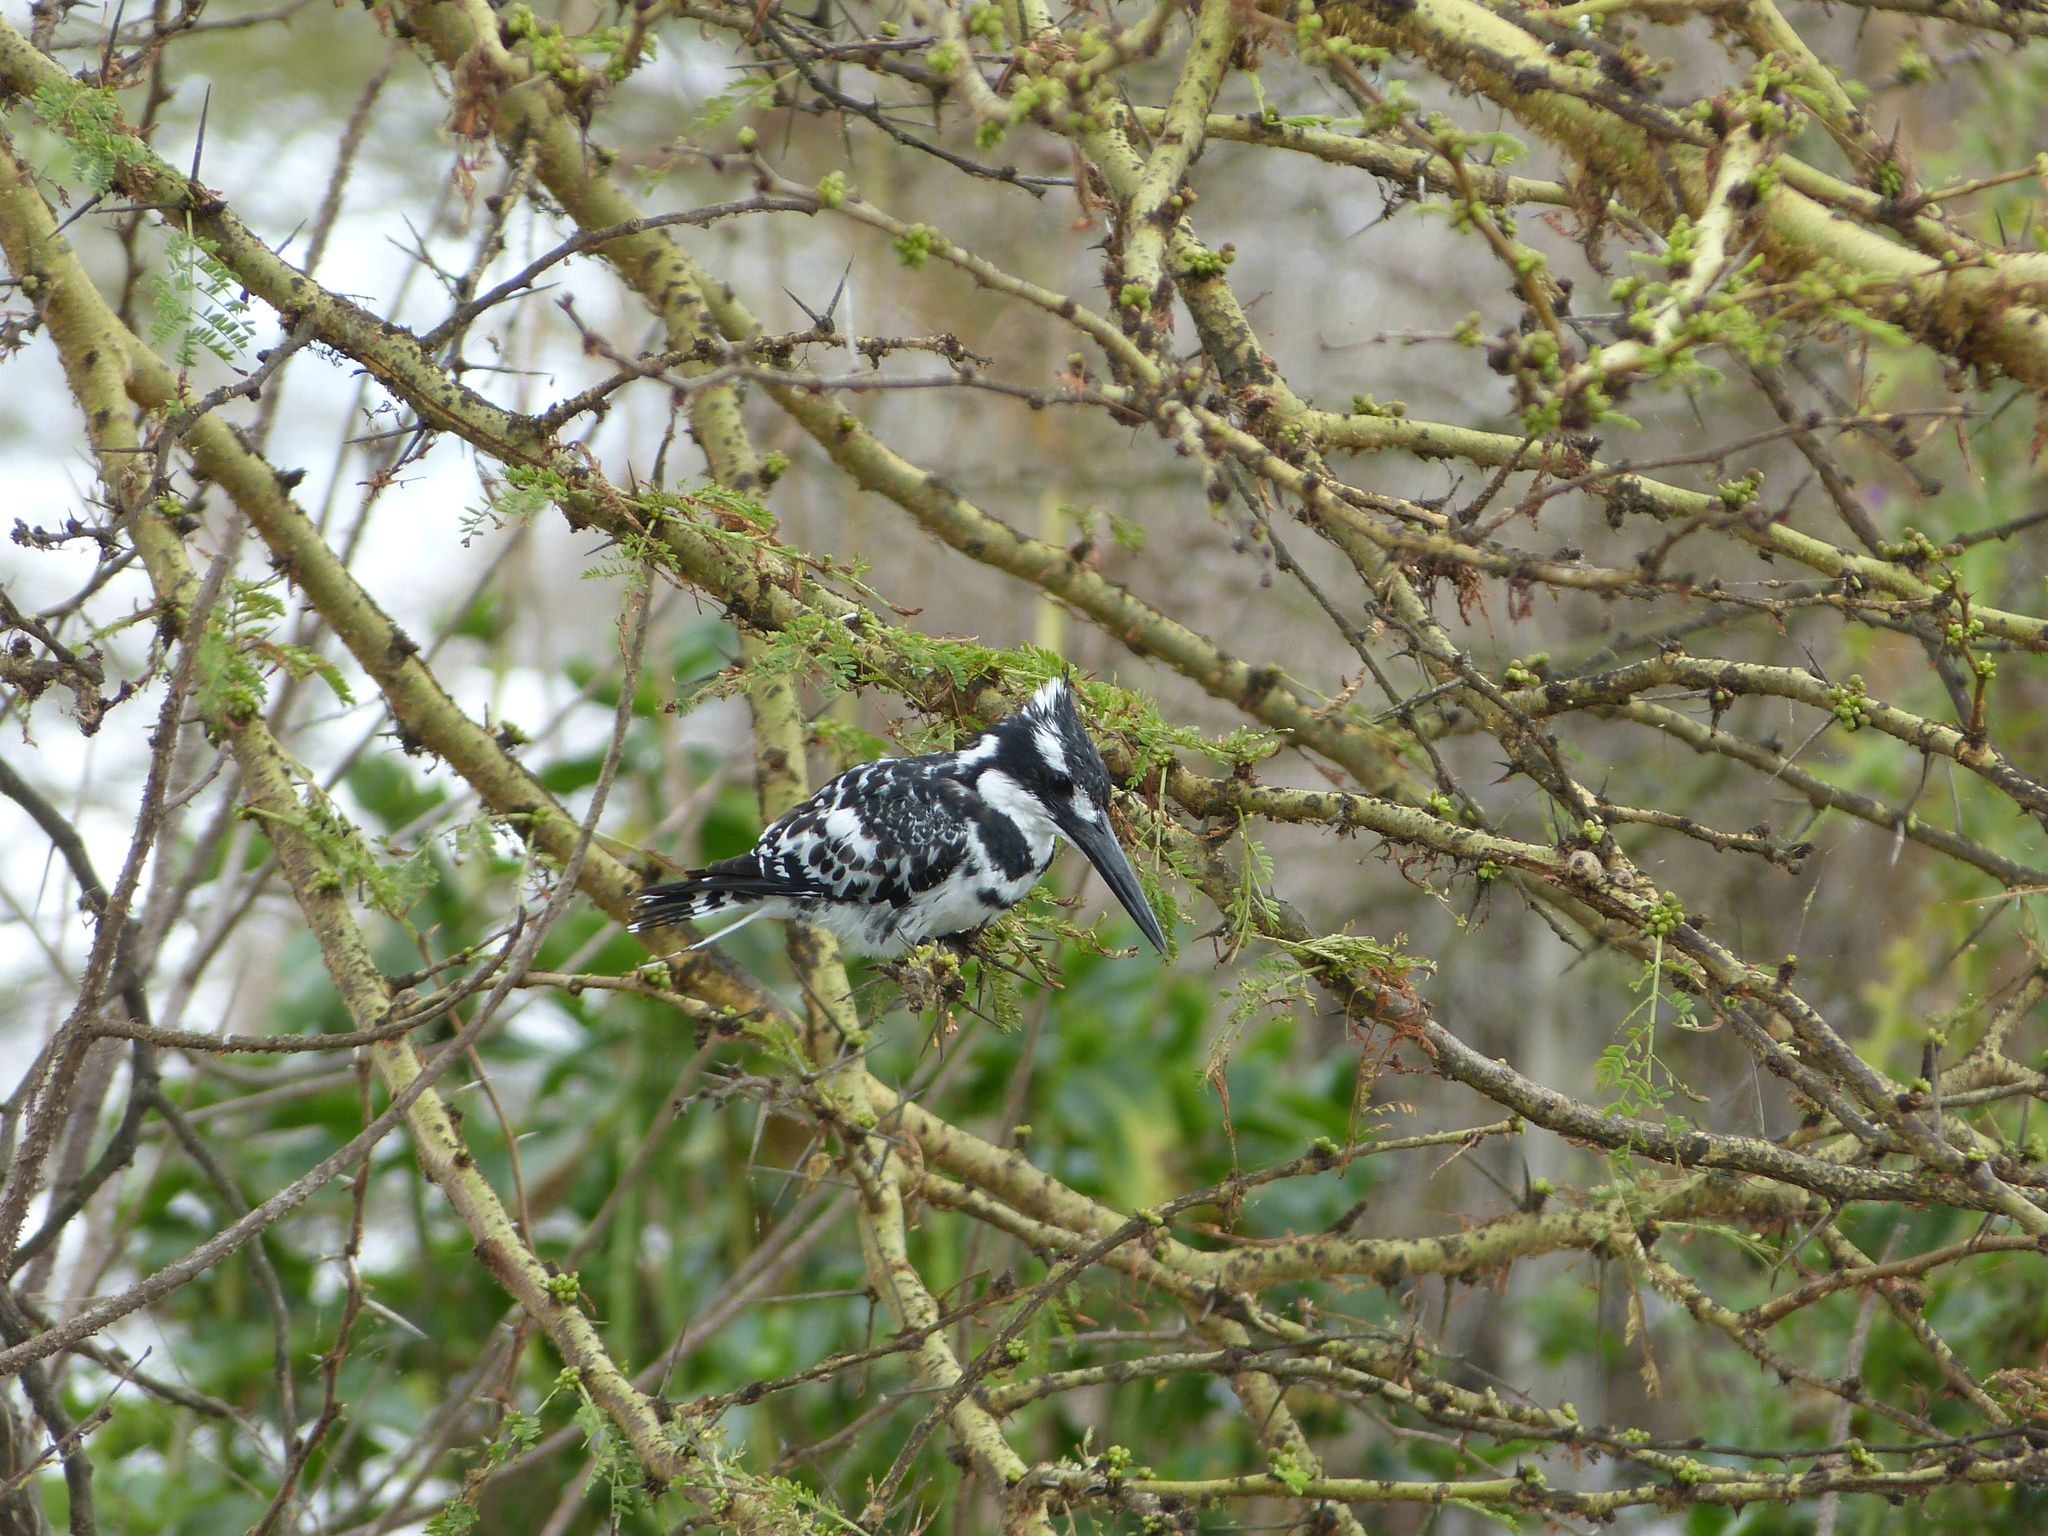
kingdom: Animalia
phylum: Chordata
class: Aves
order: Coraciiformes
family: Alcedinidae
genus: Ceryle
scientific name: Ceryle rudis
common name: Pied kingfisher
